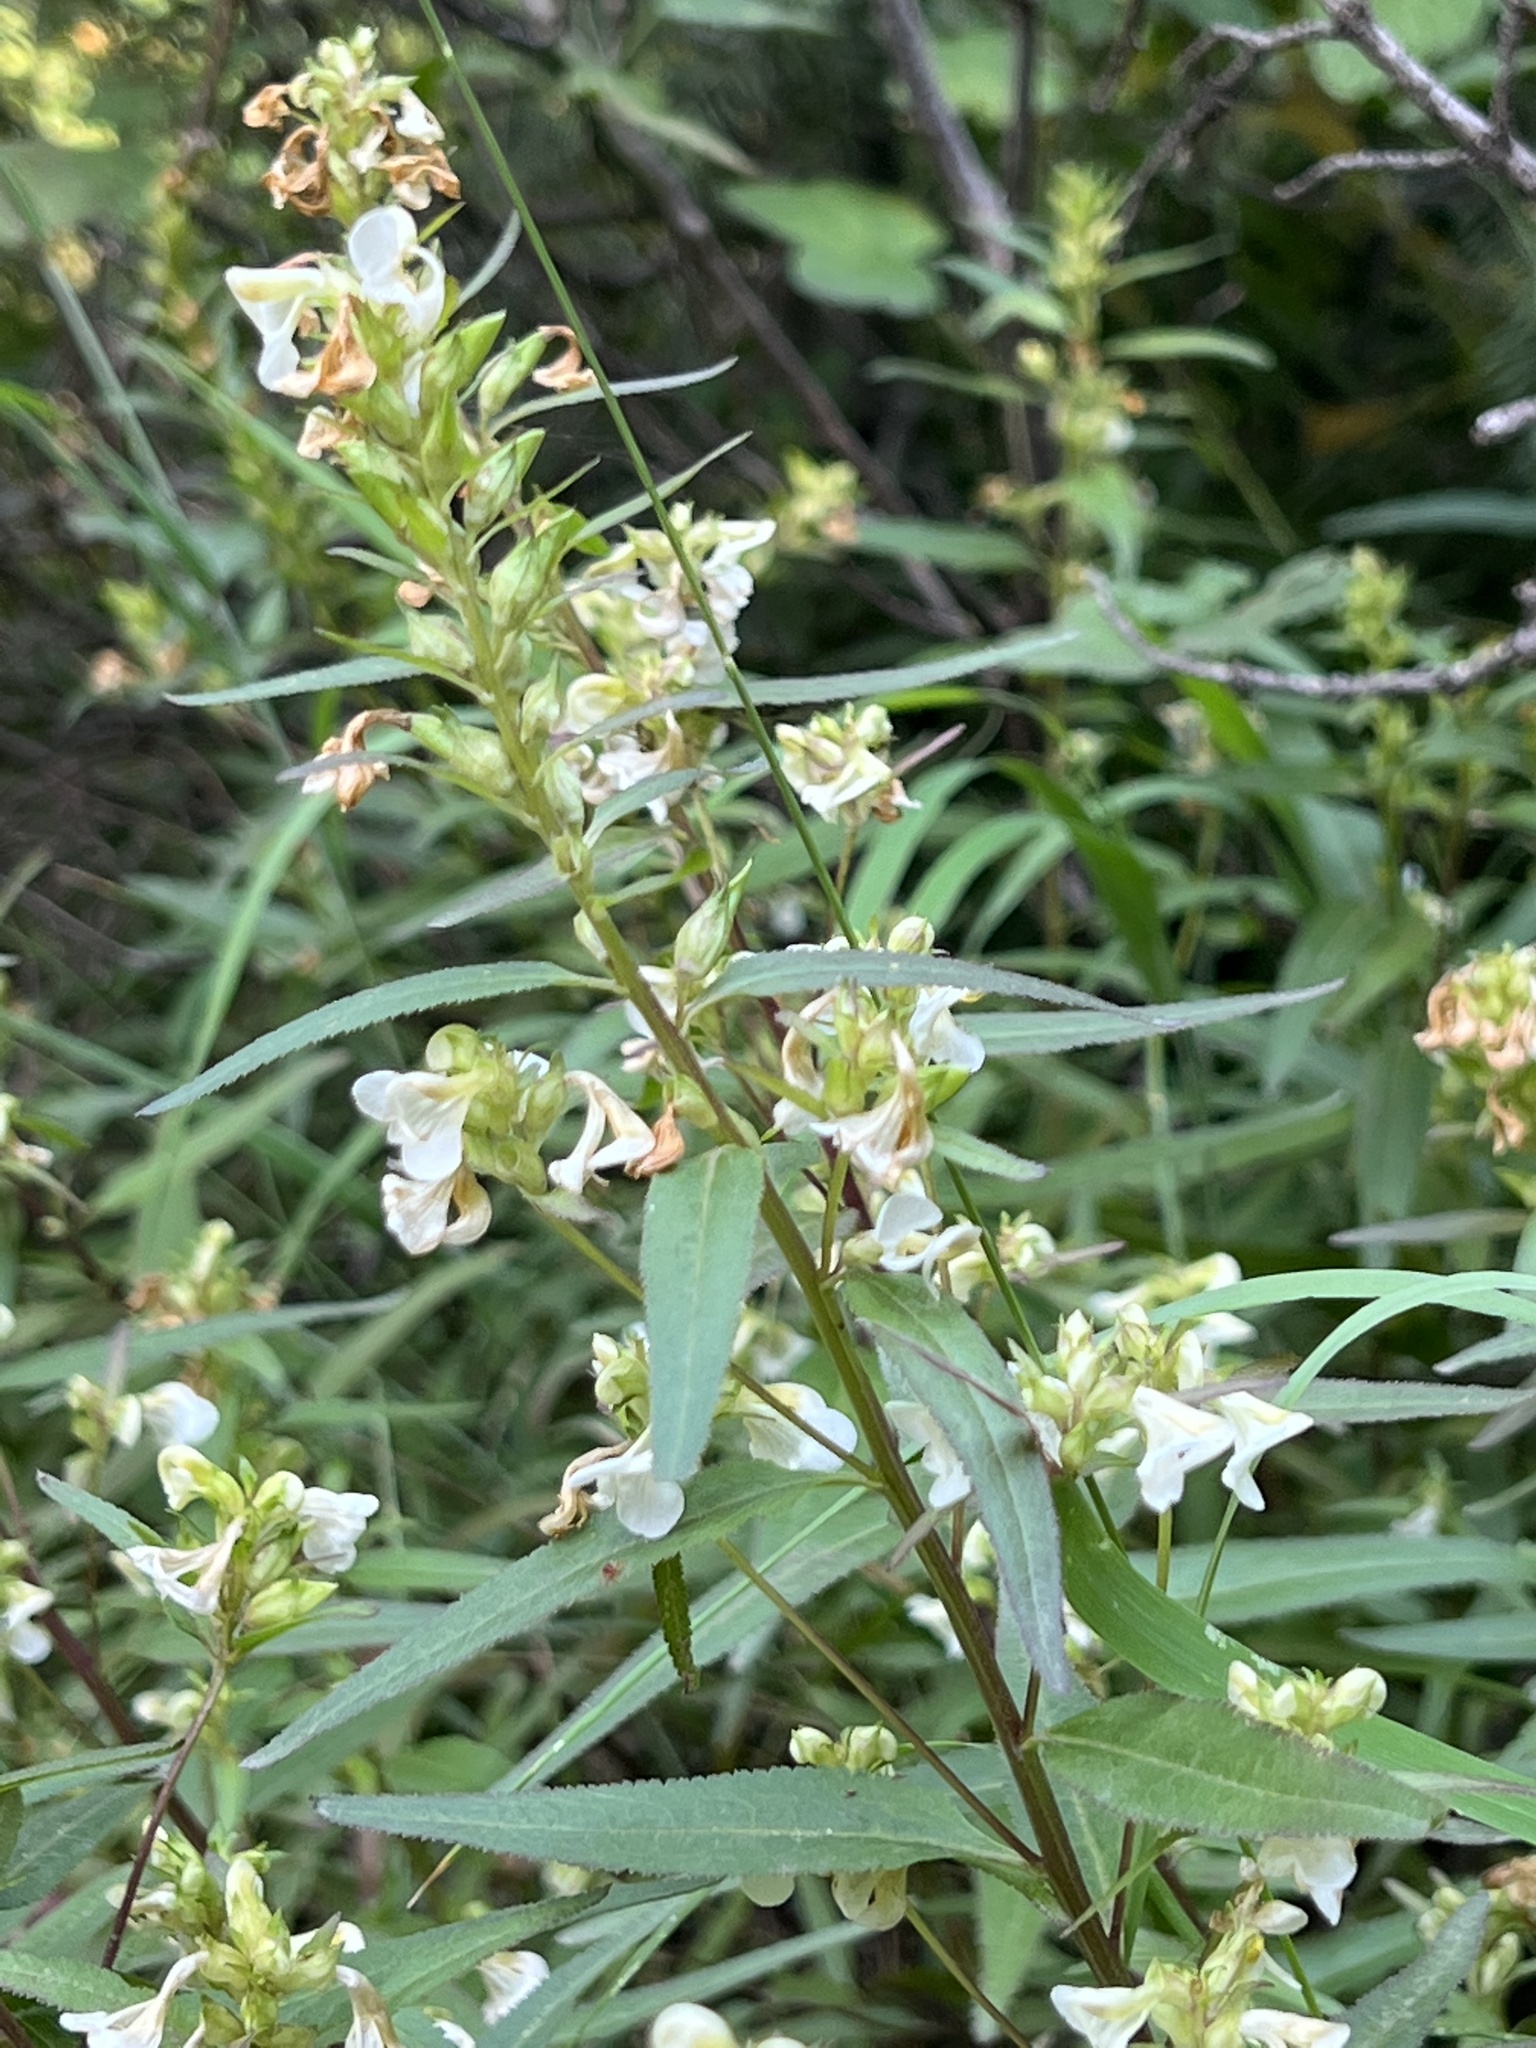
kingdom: Plantae
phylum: Tracheophyta
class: Magnoliopsida
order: Lamiales
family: Orobanchaceae
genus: Pedicularis
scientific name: Pedicularis racemosa
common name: Leafy lousewort
